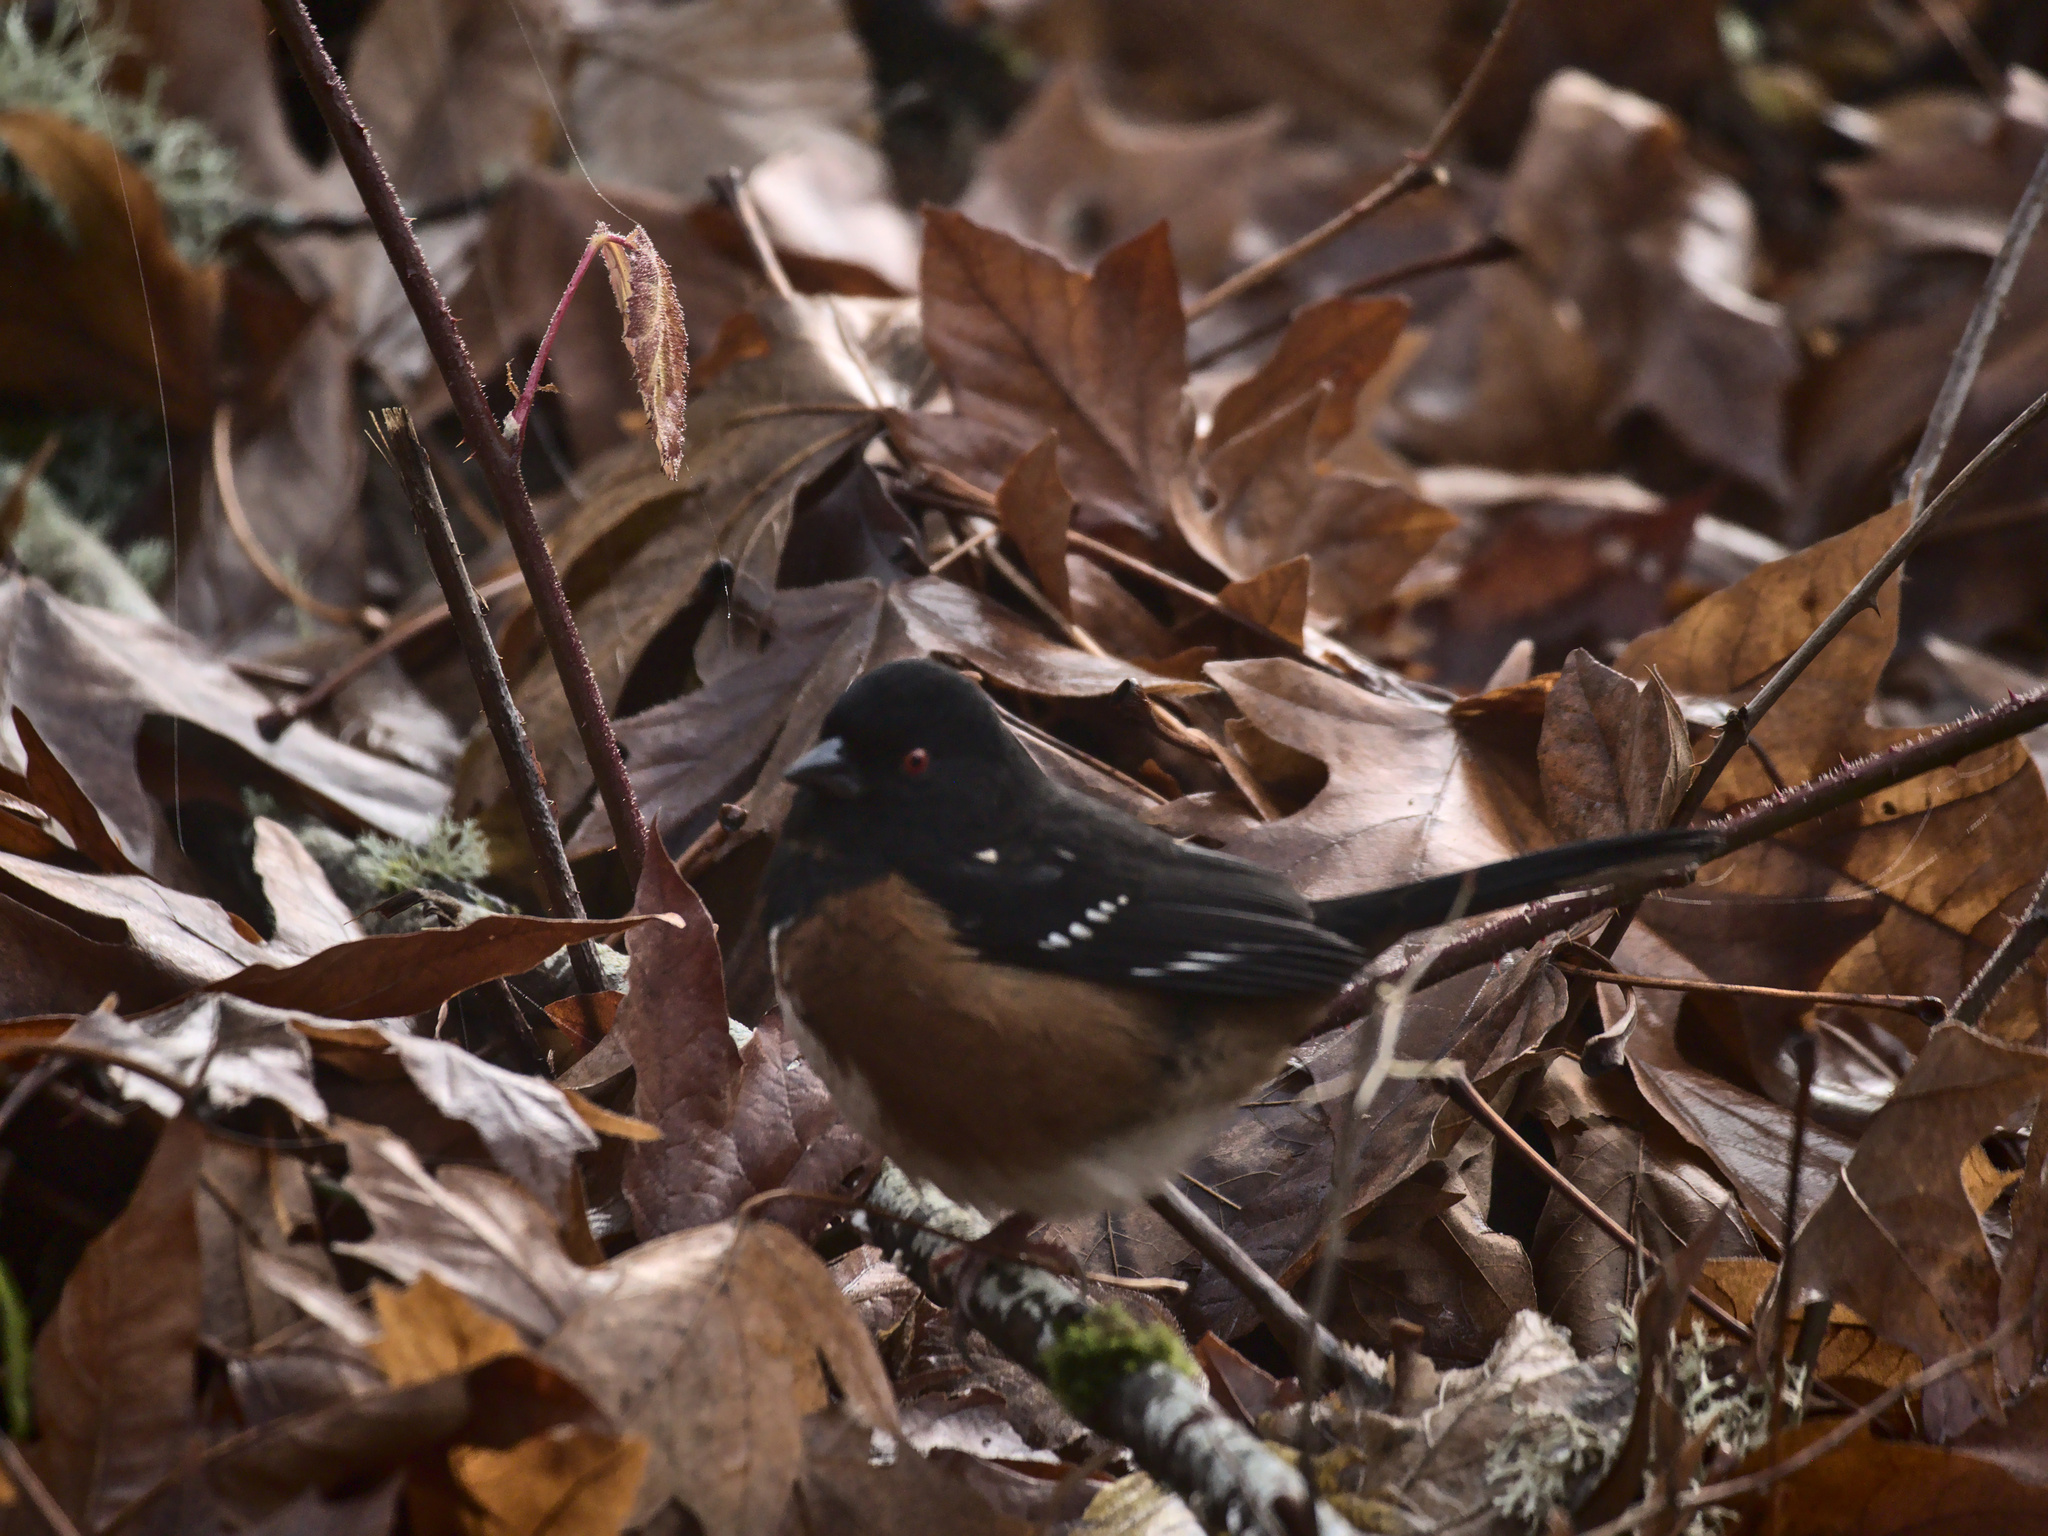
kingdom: Animalia
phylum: Chordata
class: Aves
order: Passeriformes
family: Passerellidae
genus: Pipilo
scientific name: Pipilo maculatus
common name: Spotted towhee
